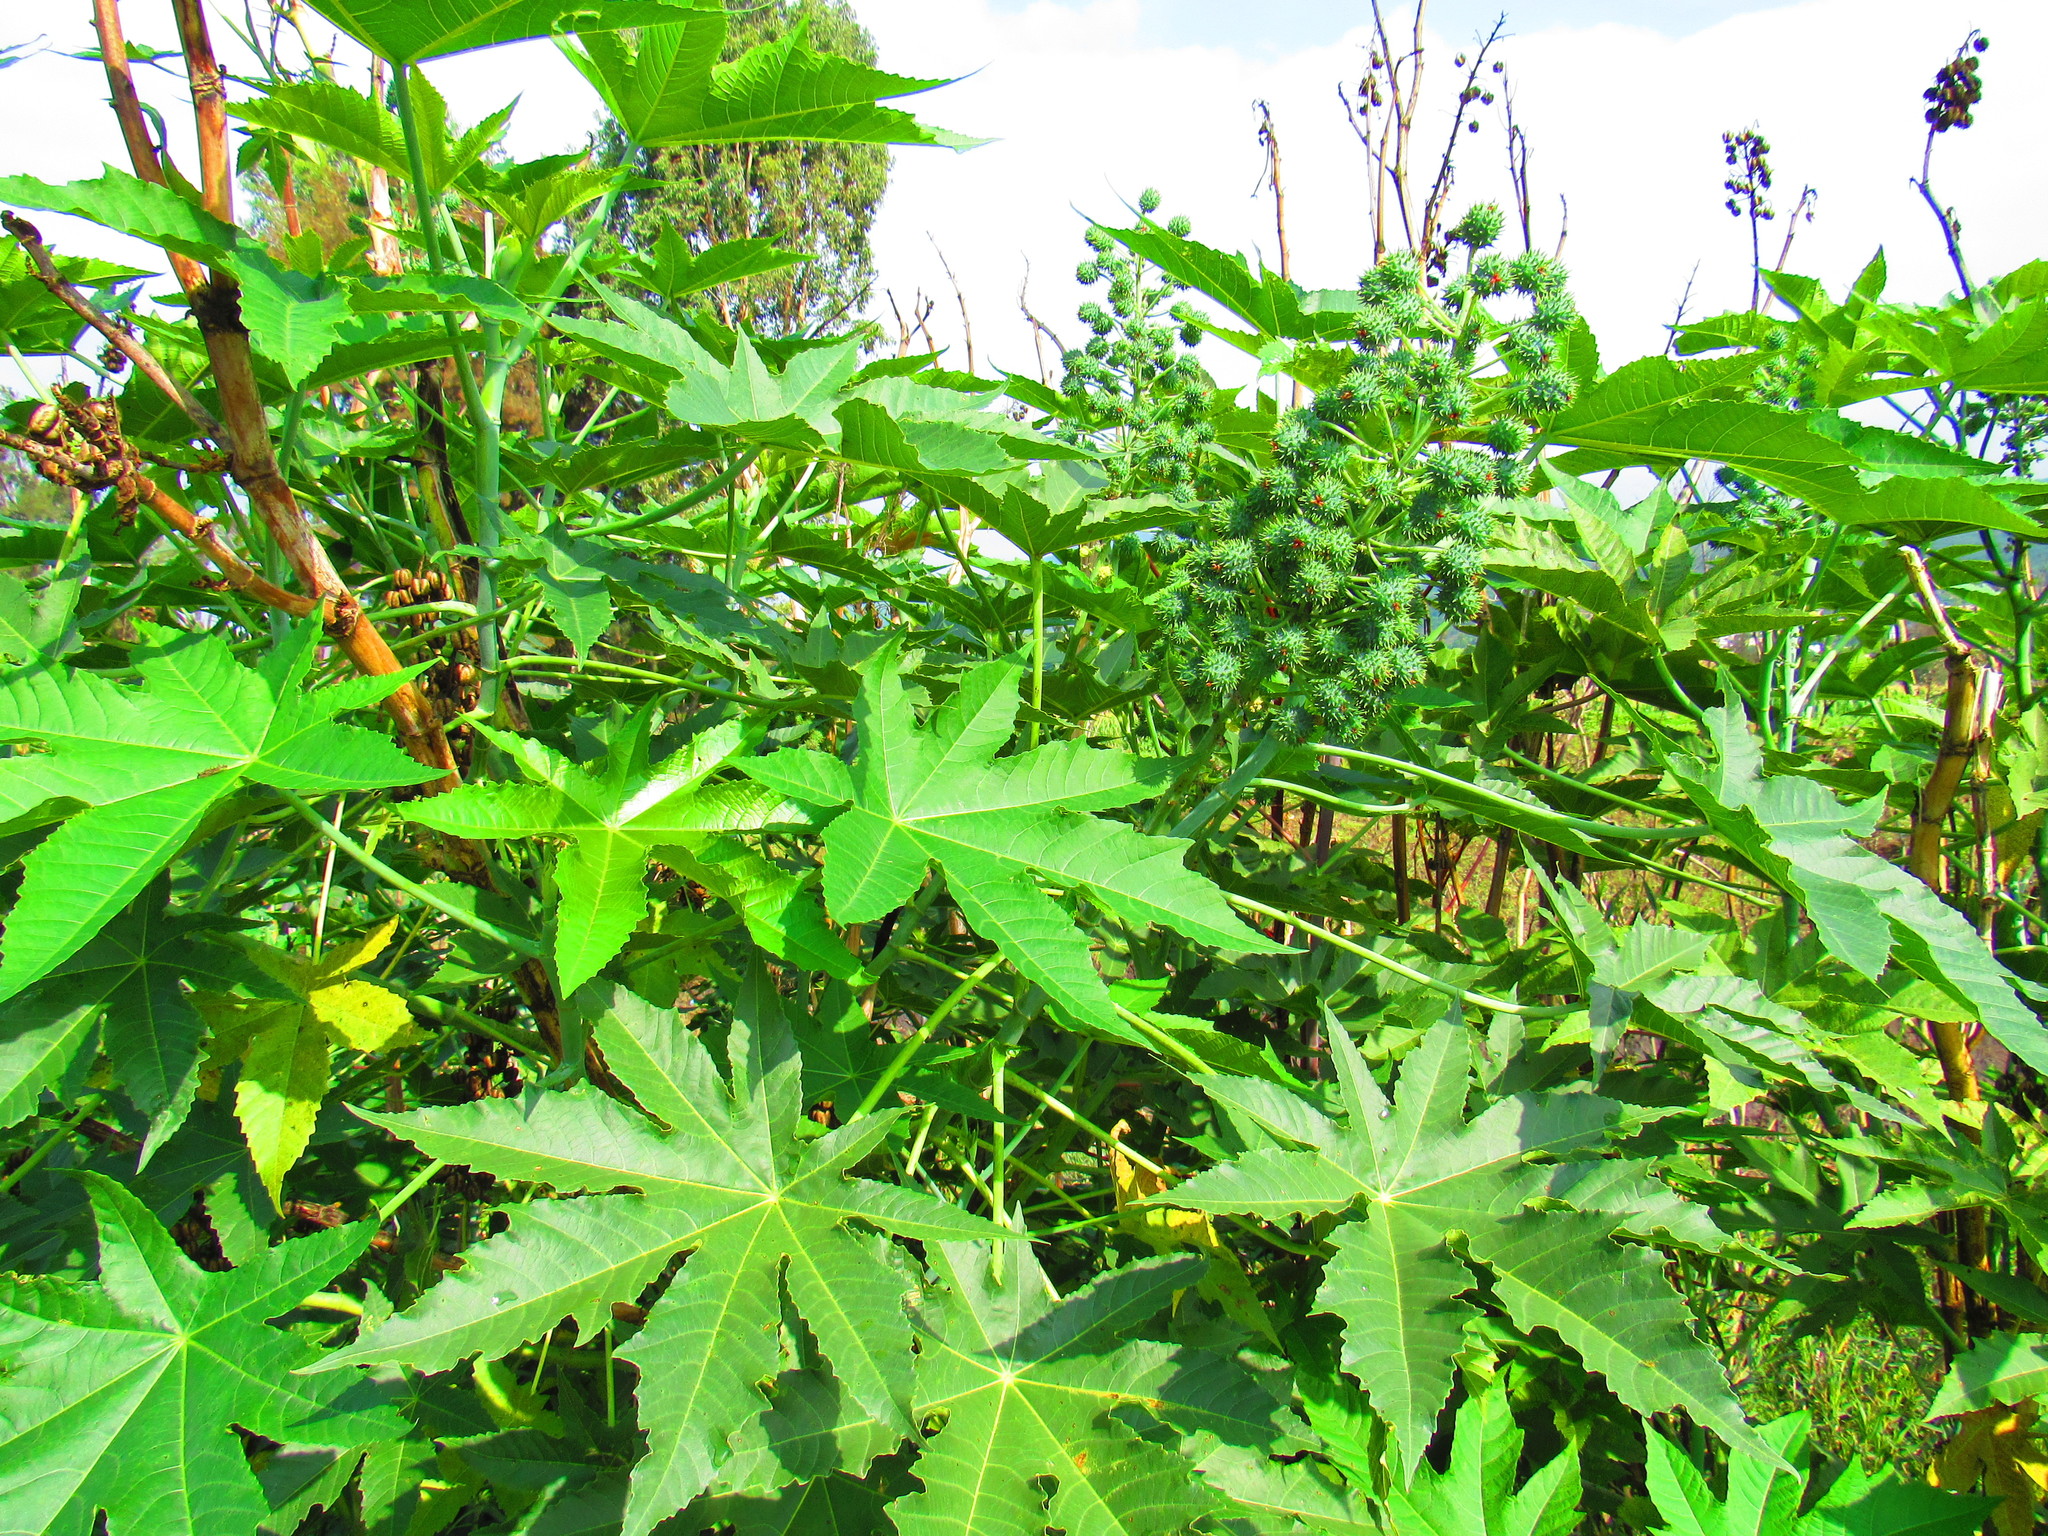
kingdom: Plantae
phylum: Tracheophyta
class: Magnoliopsida
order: Malpighiales
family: Euphorbiaceae
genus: Ricinus
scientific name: Ricinus communis
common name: Castor-oil-plant
